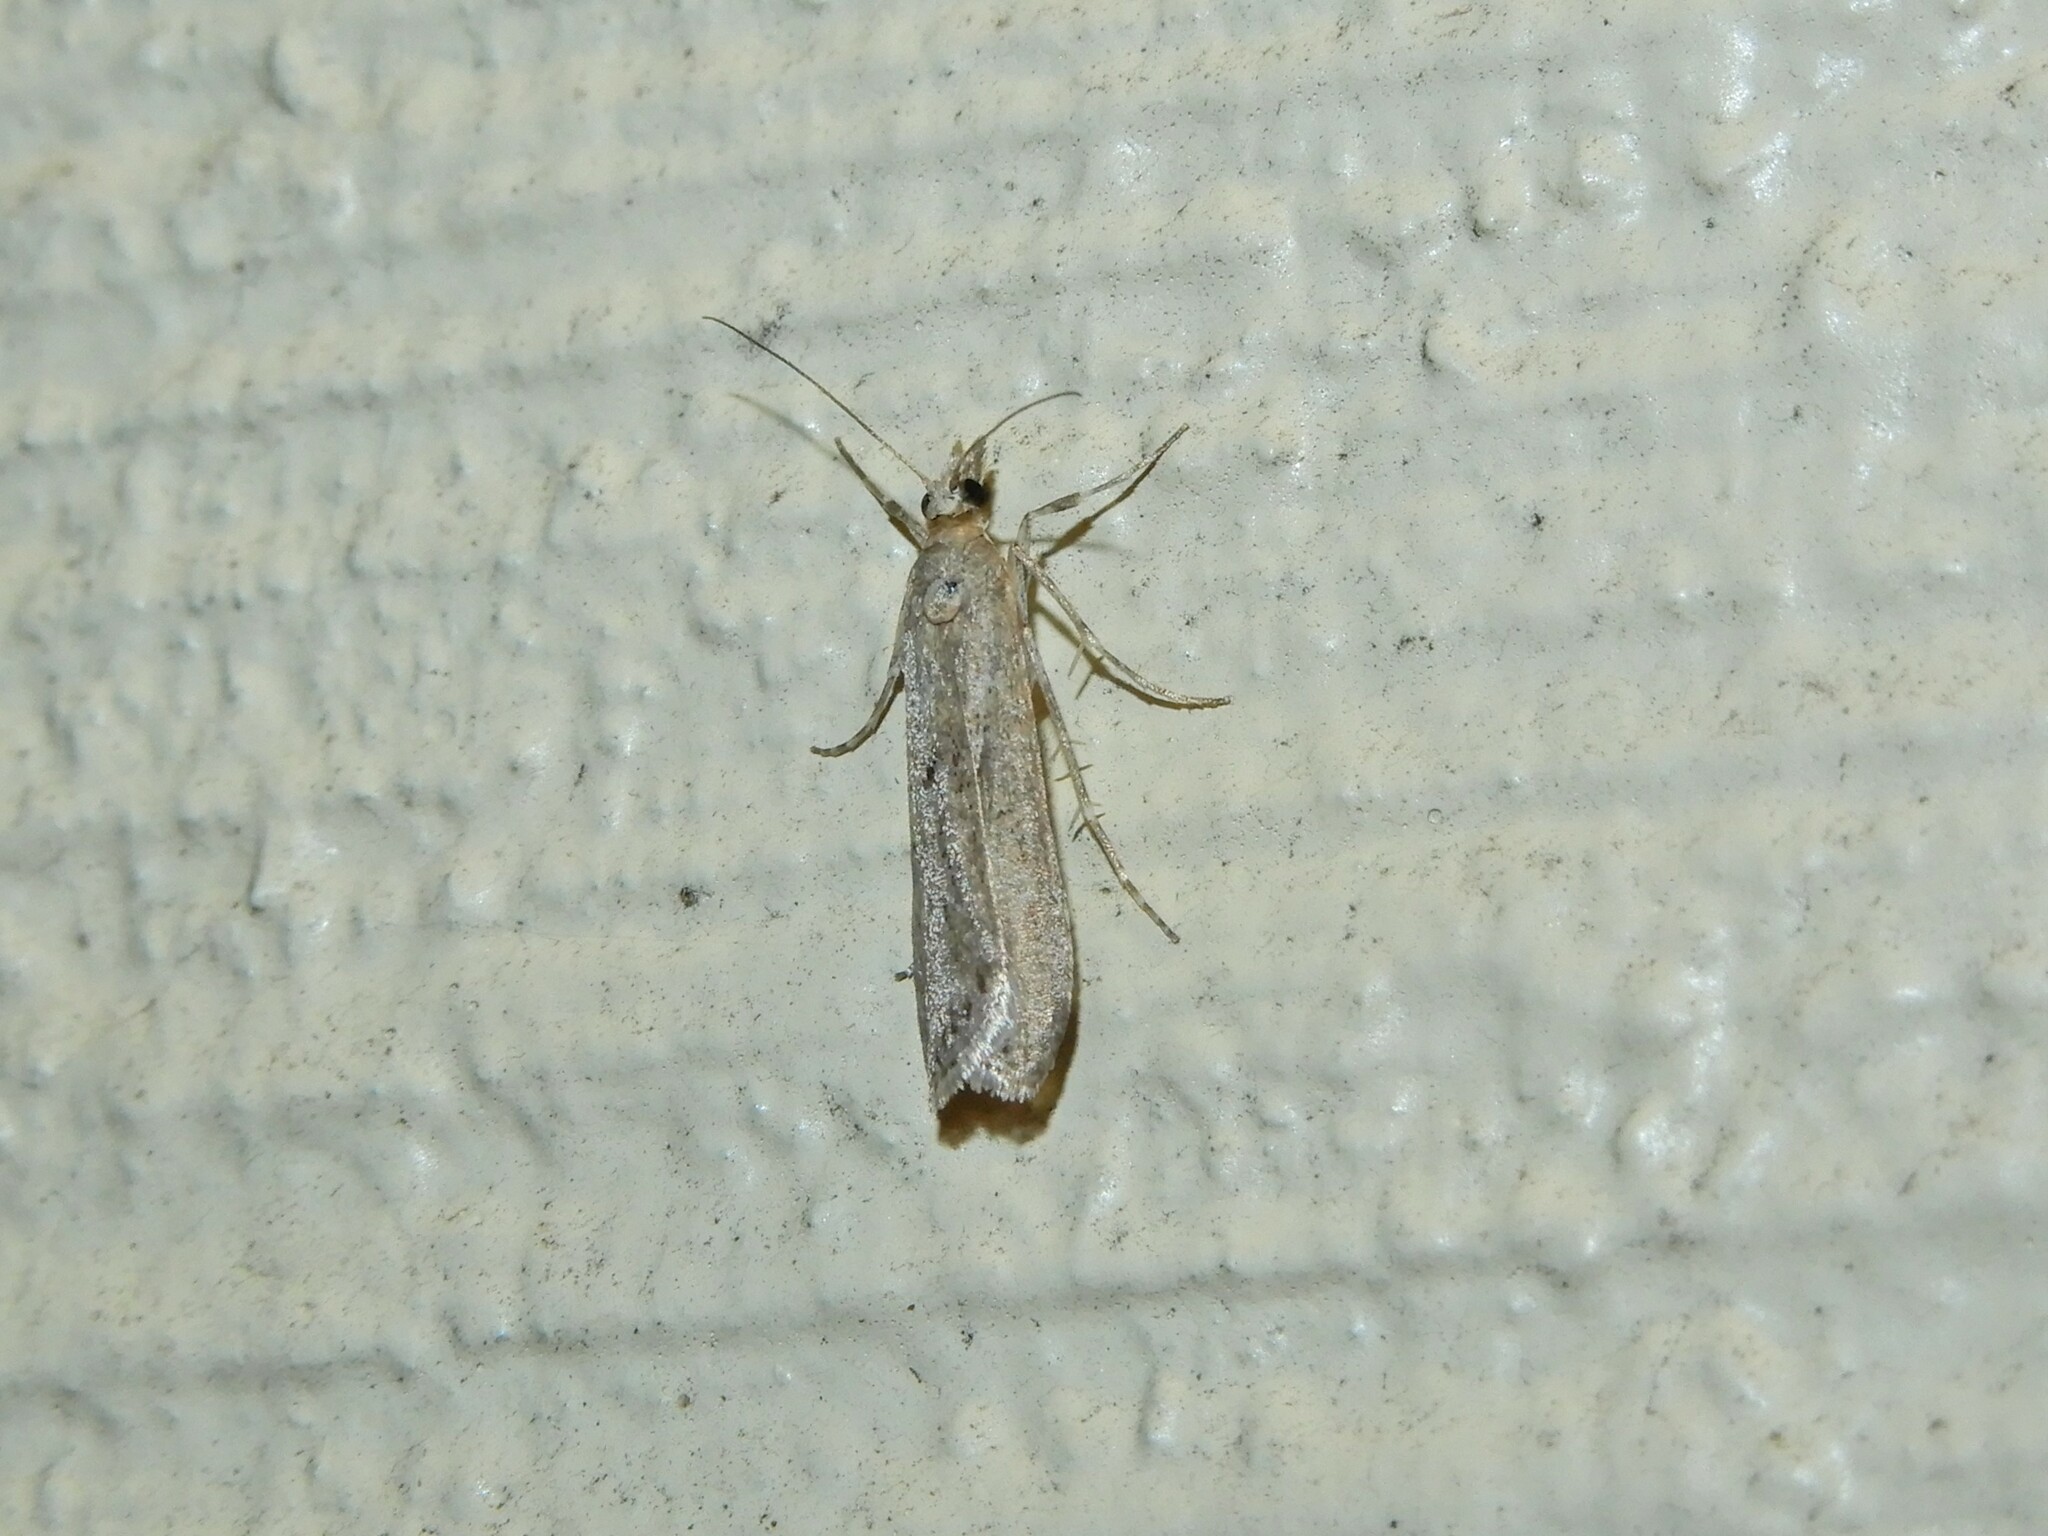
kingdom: Animalia
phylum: Arthropoda
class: Insecta
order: Lepidoptera
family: Crambidae
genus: Eudonia
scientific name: Eudonia leptalea
